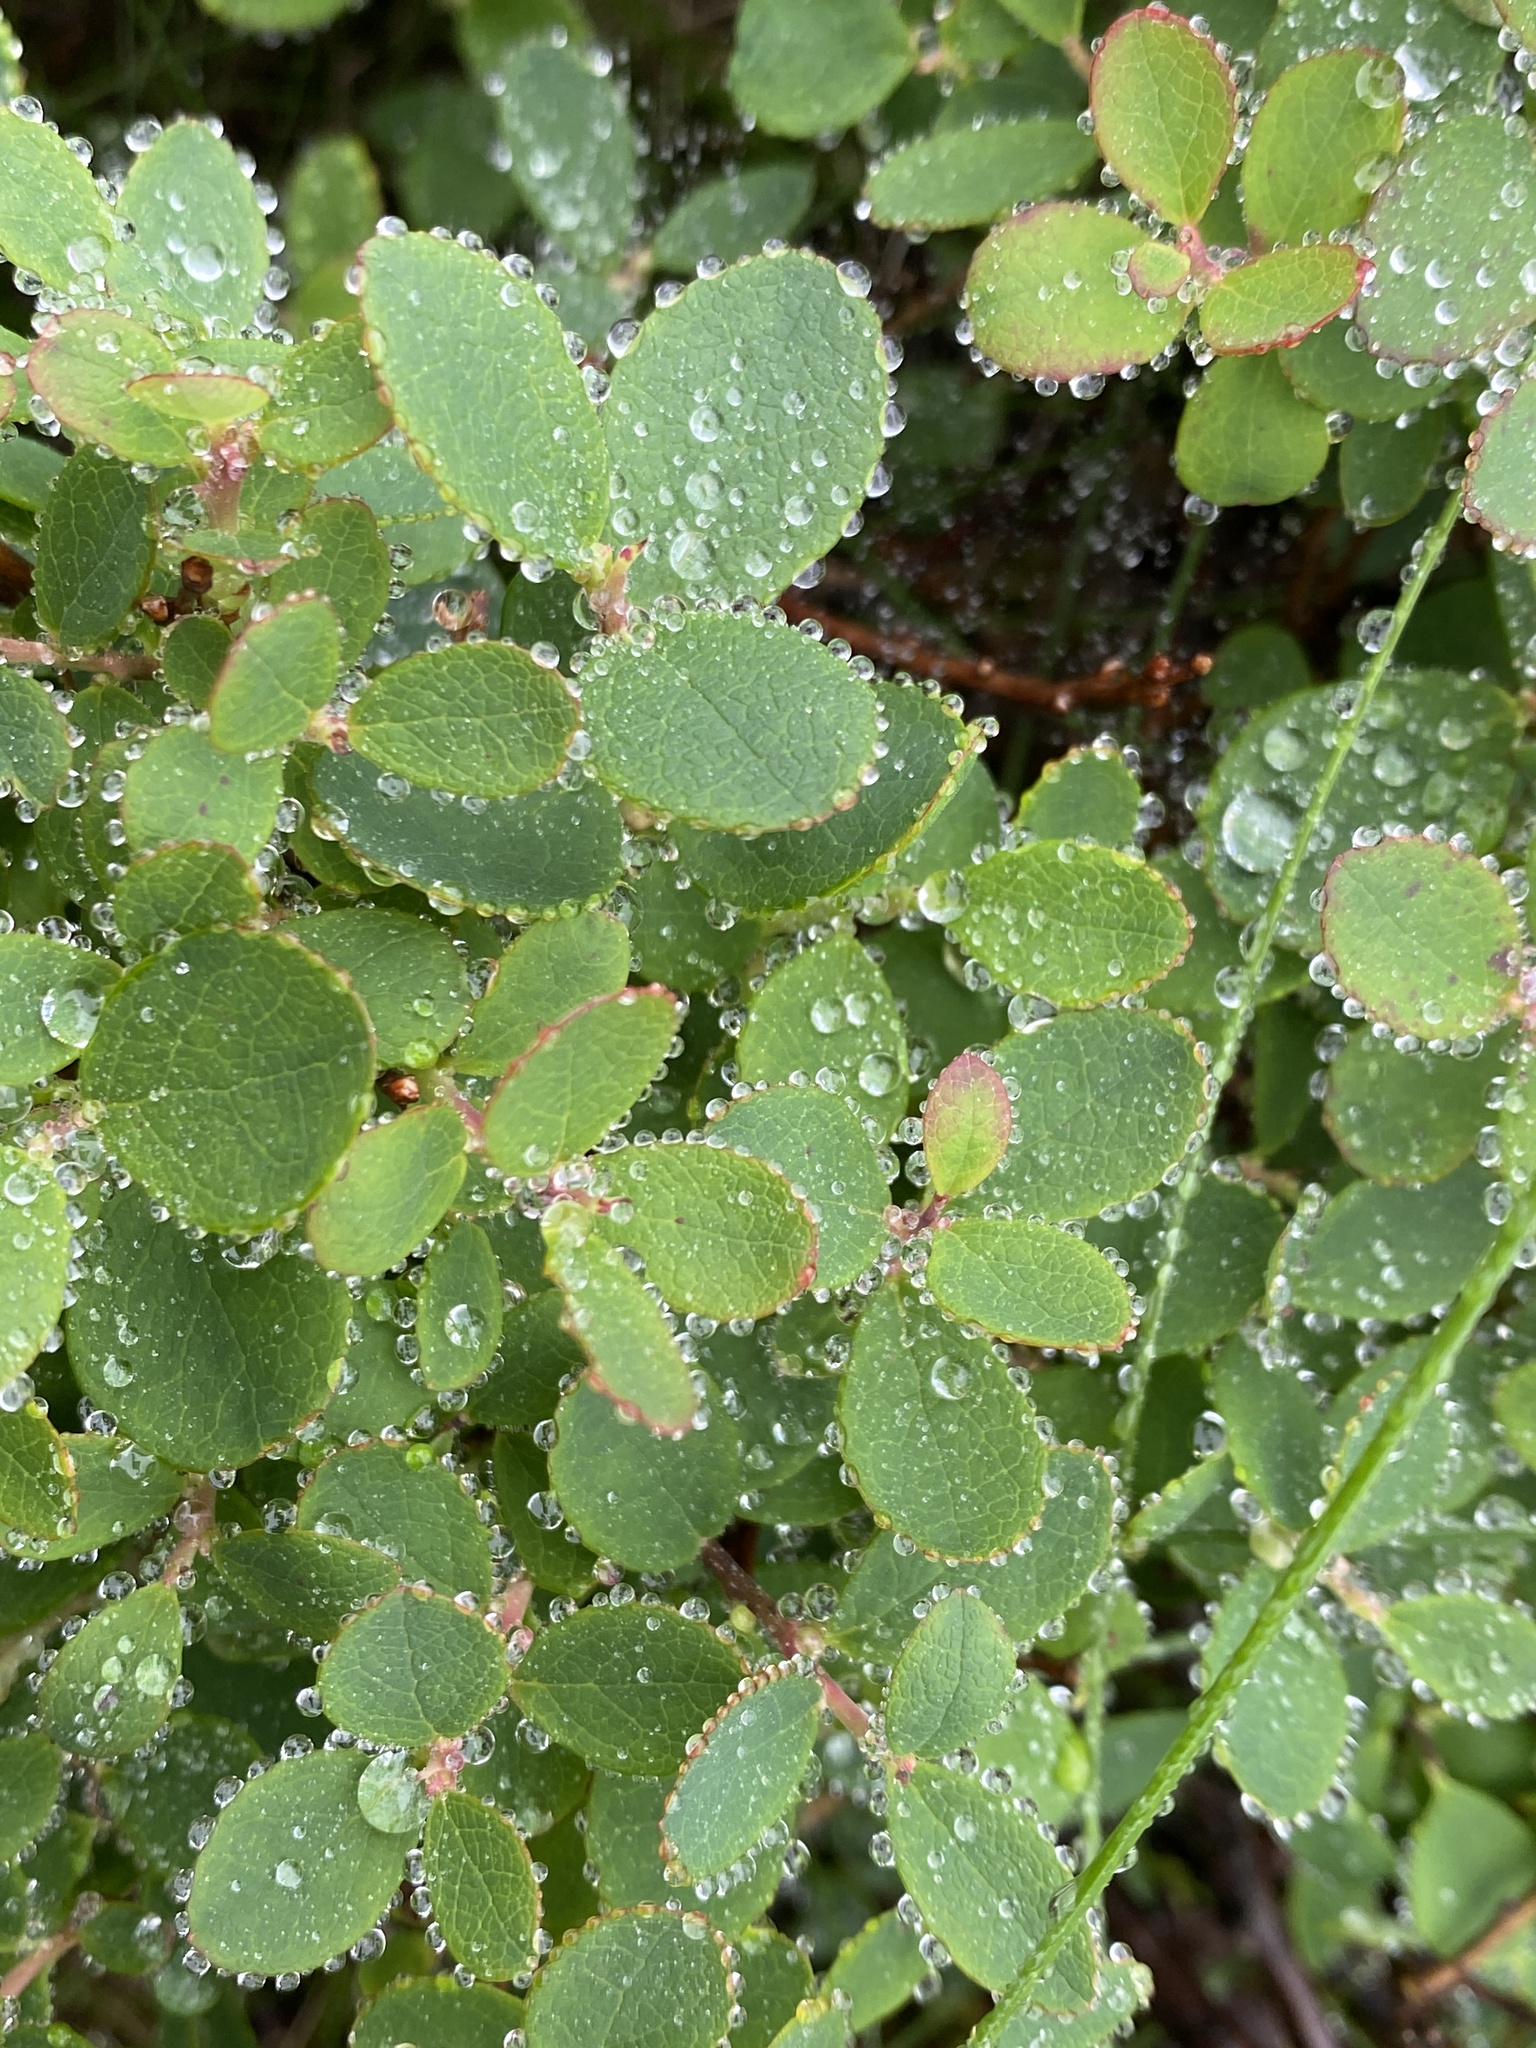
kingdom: Plantae
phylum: Tracheophyta
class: Magnoliopsida
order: Ericales
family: Ericaceae
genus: Vaccinium
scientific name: Vaccinium uliginosum
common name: Bog bilberry
